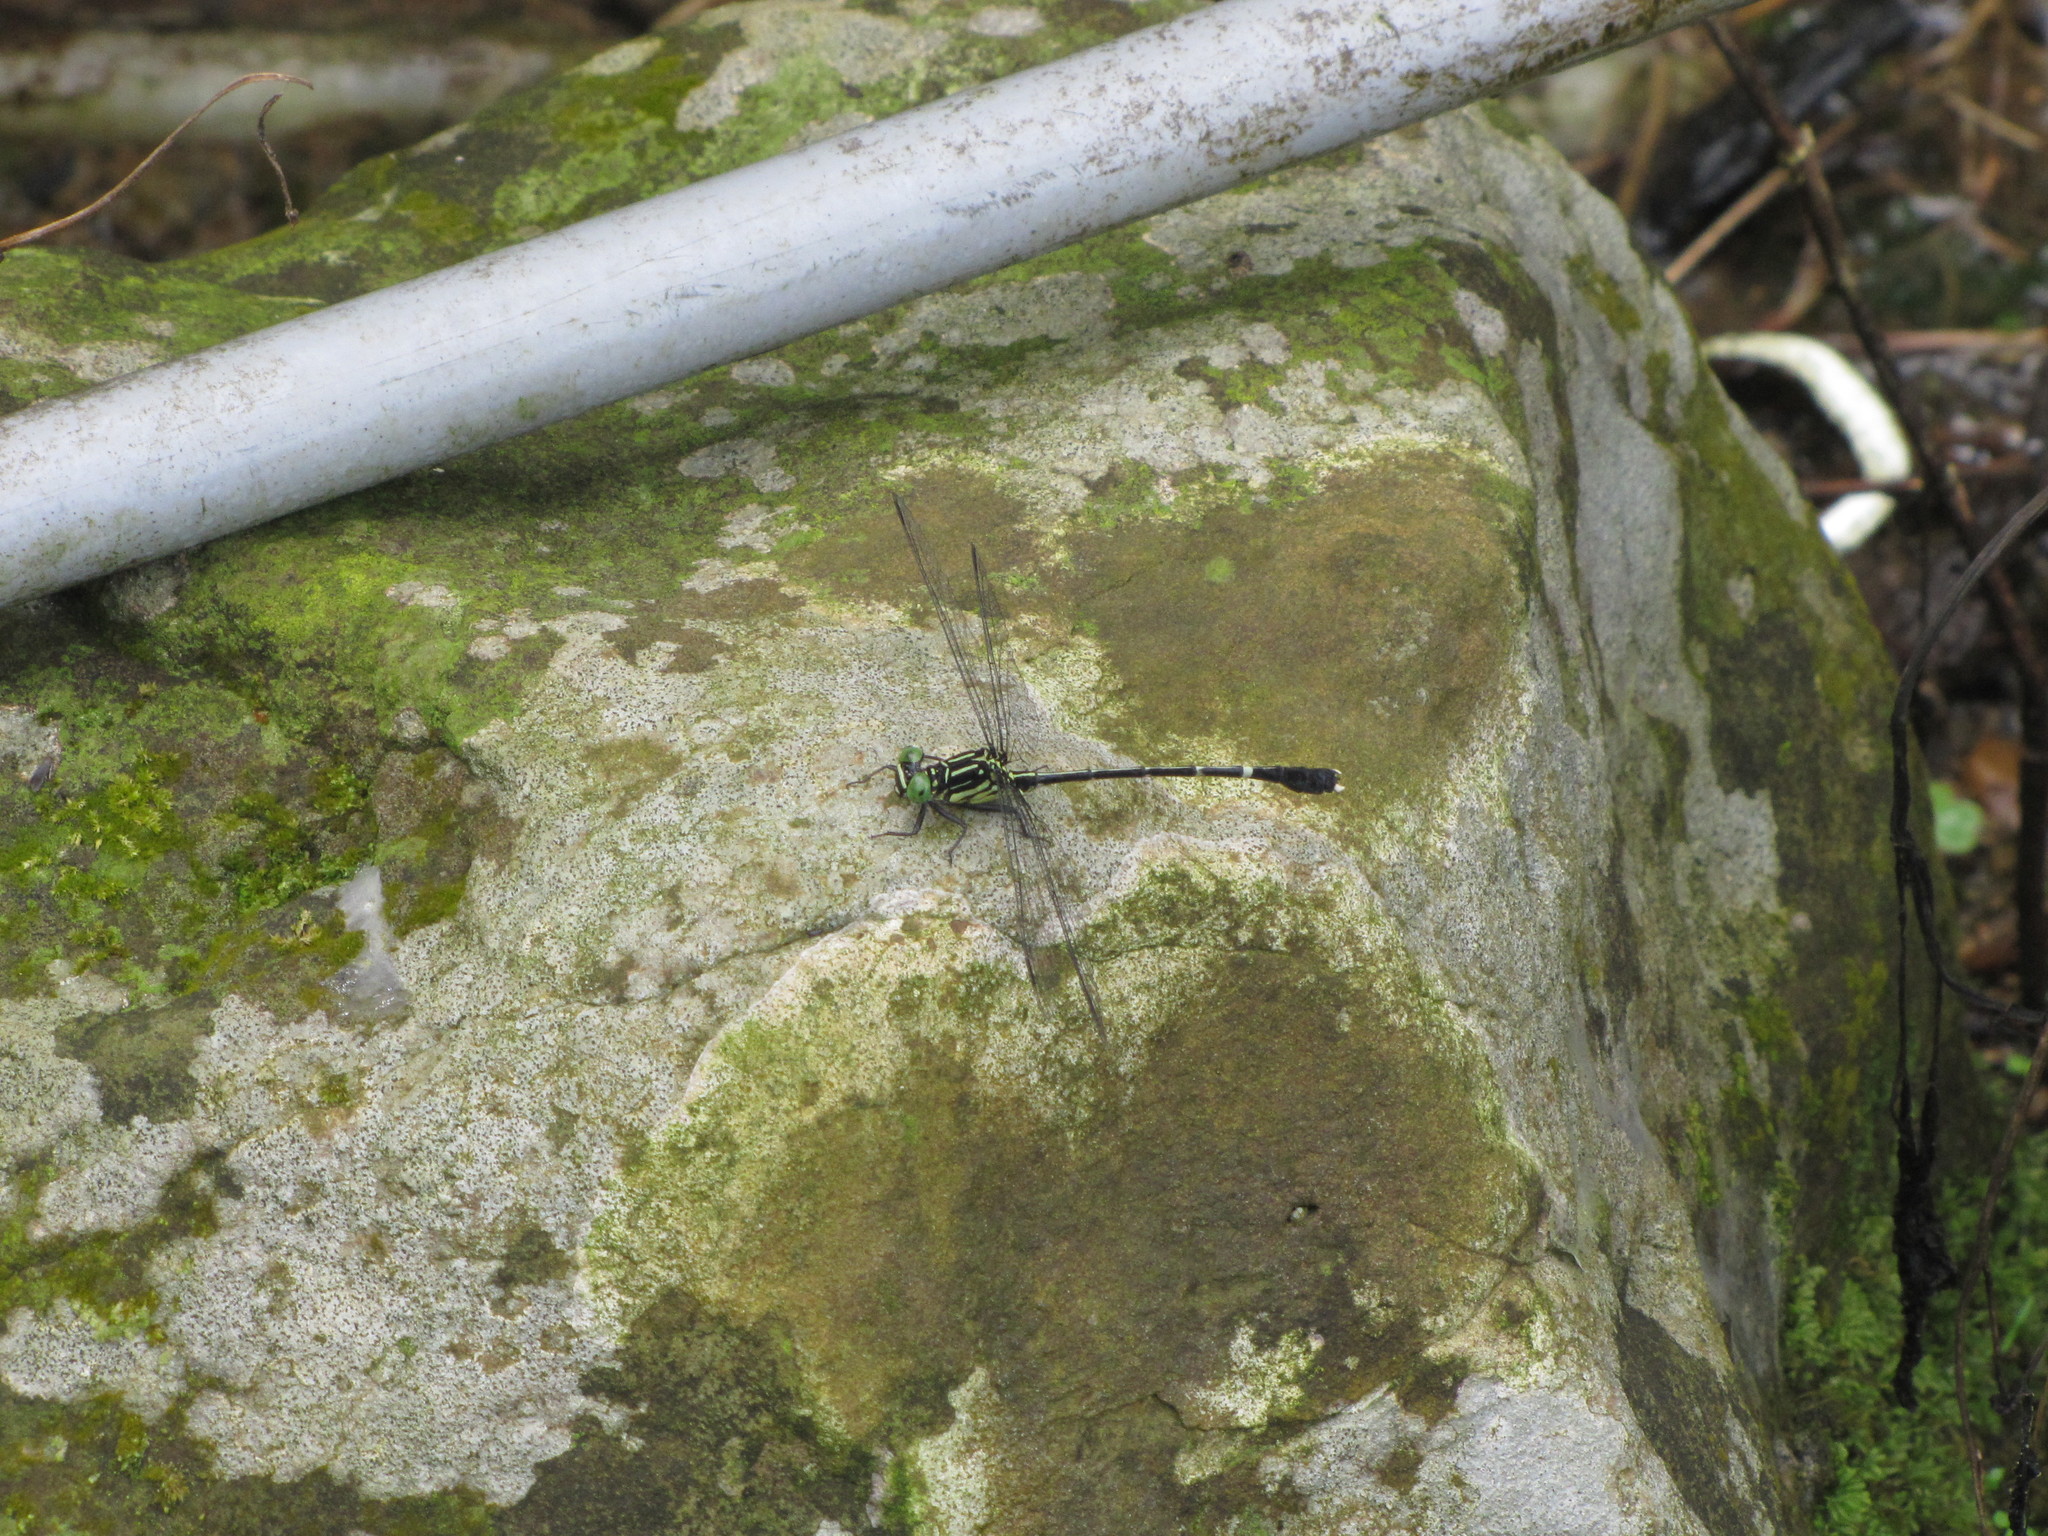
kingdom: Animalia
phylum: Arthropoda
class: Insecta
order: Odonata
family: Gomphidae
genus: Leptogomphus
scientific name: Leptogomphus sauteri
